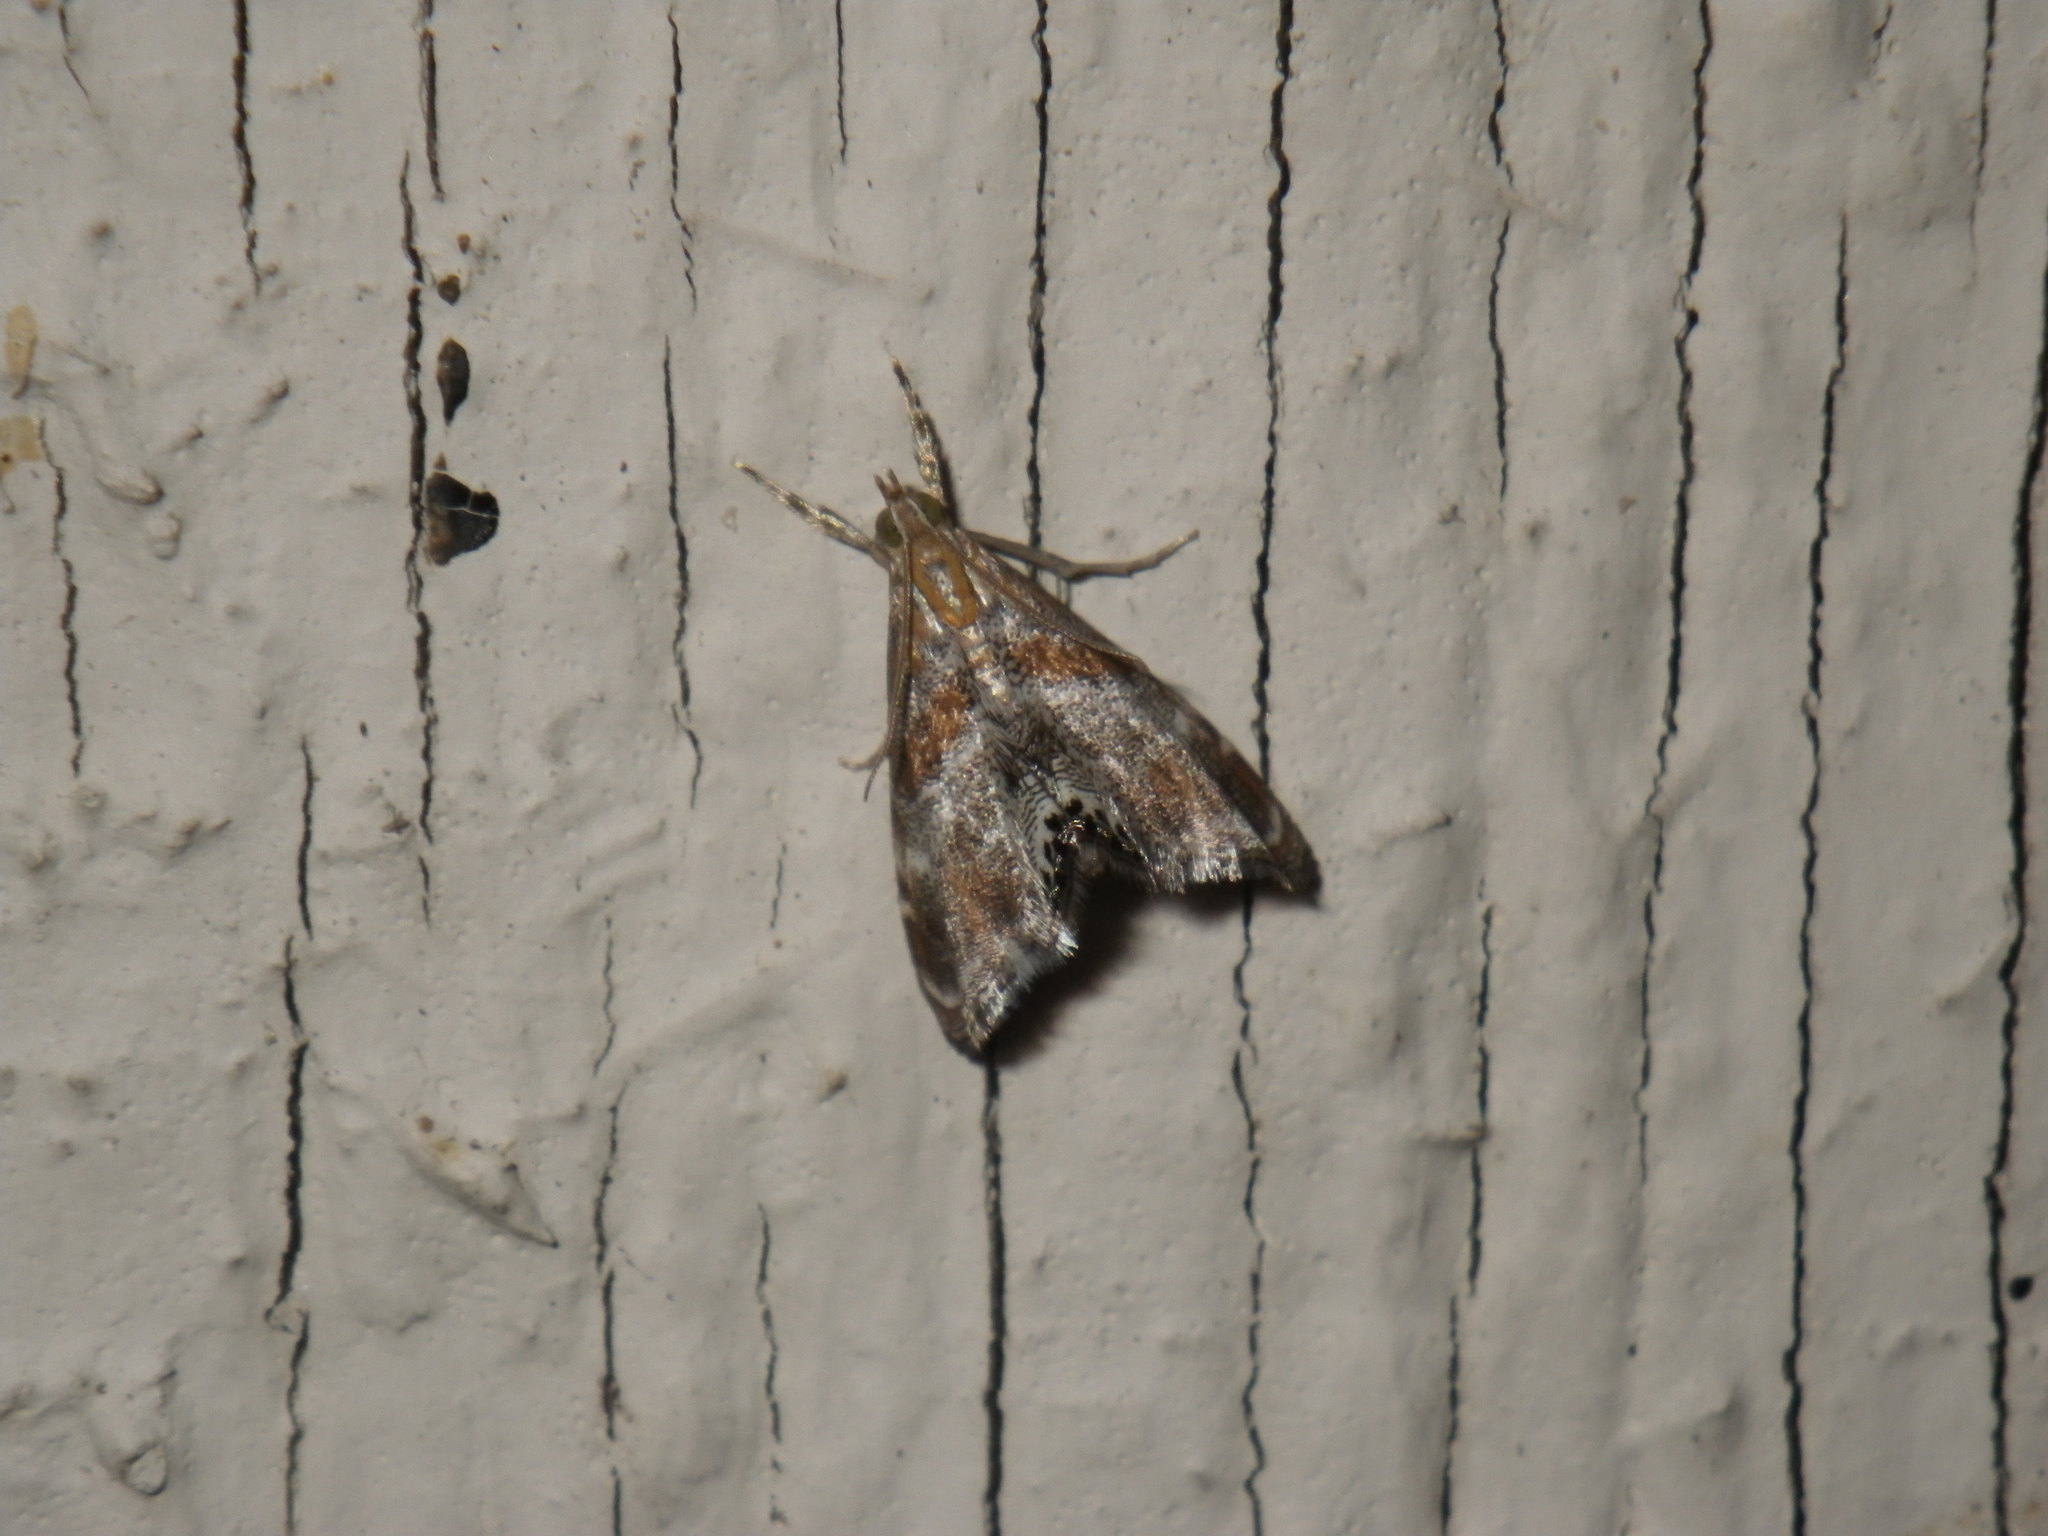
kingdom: Animalia
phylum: Arthropoda
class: Insecta
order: Lepidoptera
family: Crambidae
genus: Dicymolomia
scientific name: Dicymolomia metalliferalis
